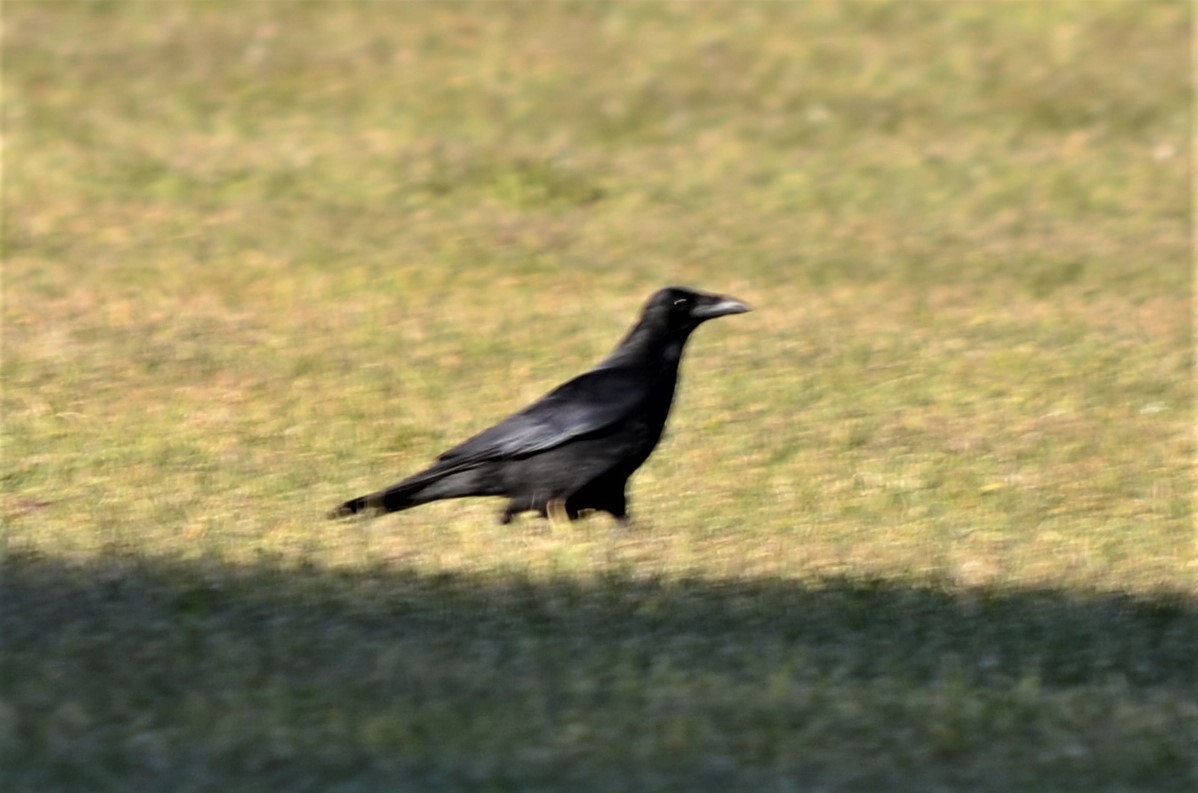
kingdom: Animalia
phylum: Chordata
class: Aves
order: Passeriformes
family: Corvidae
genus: Corvus
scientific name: Corvus corone
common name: Carrion crow
